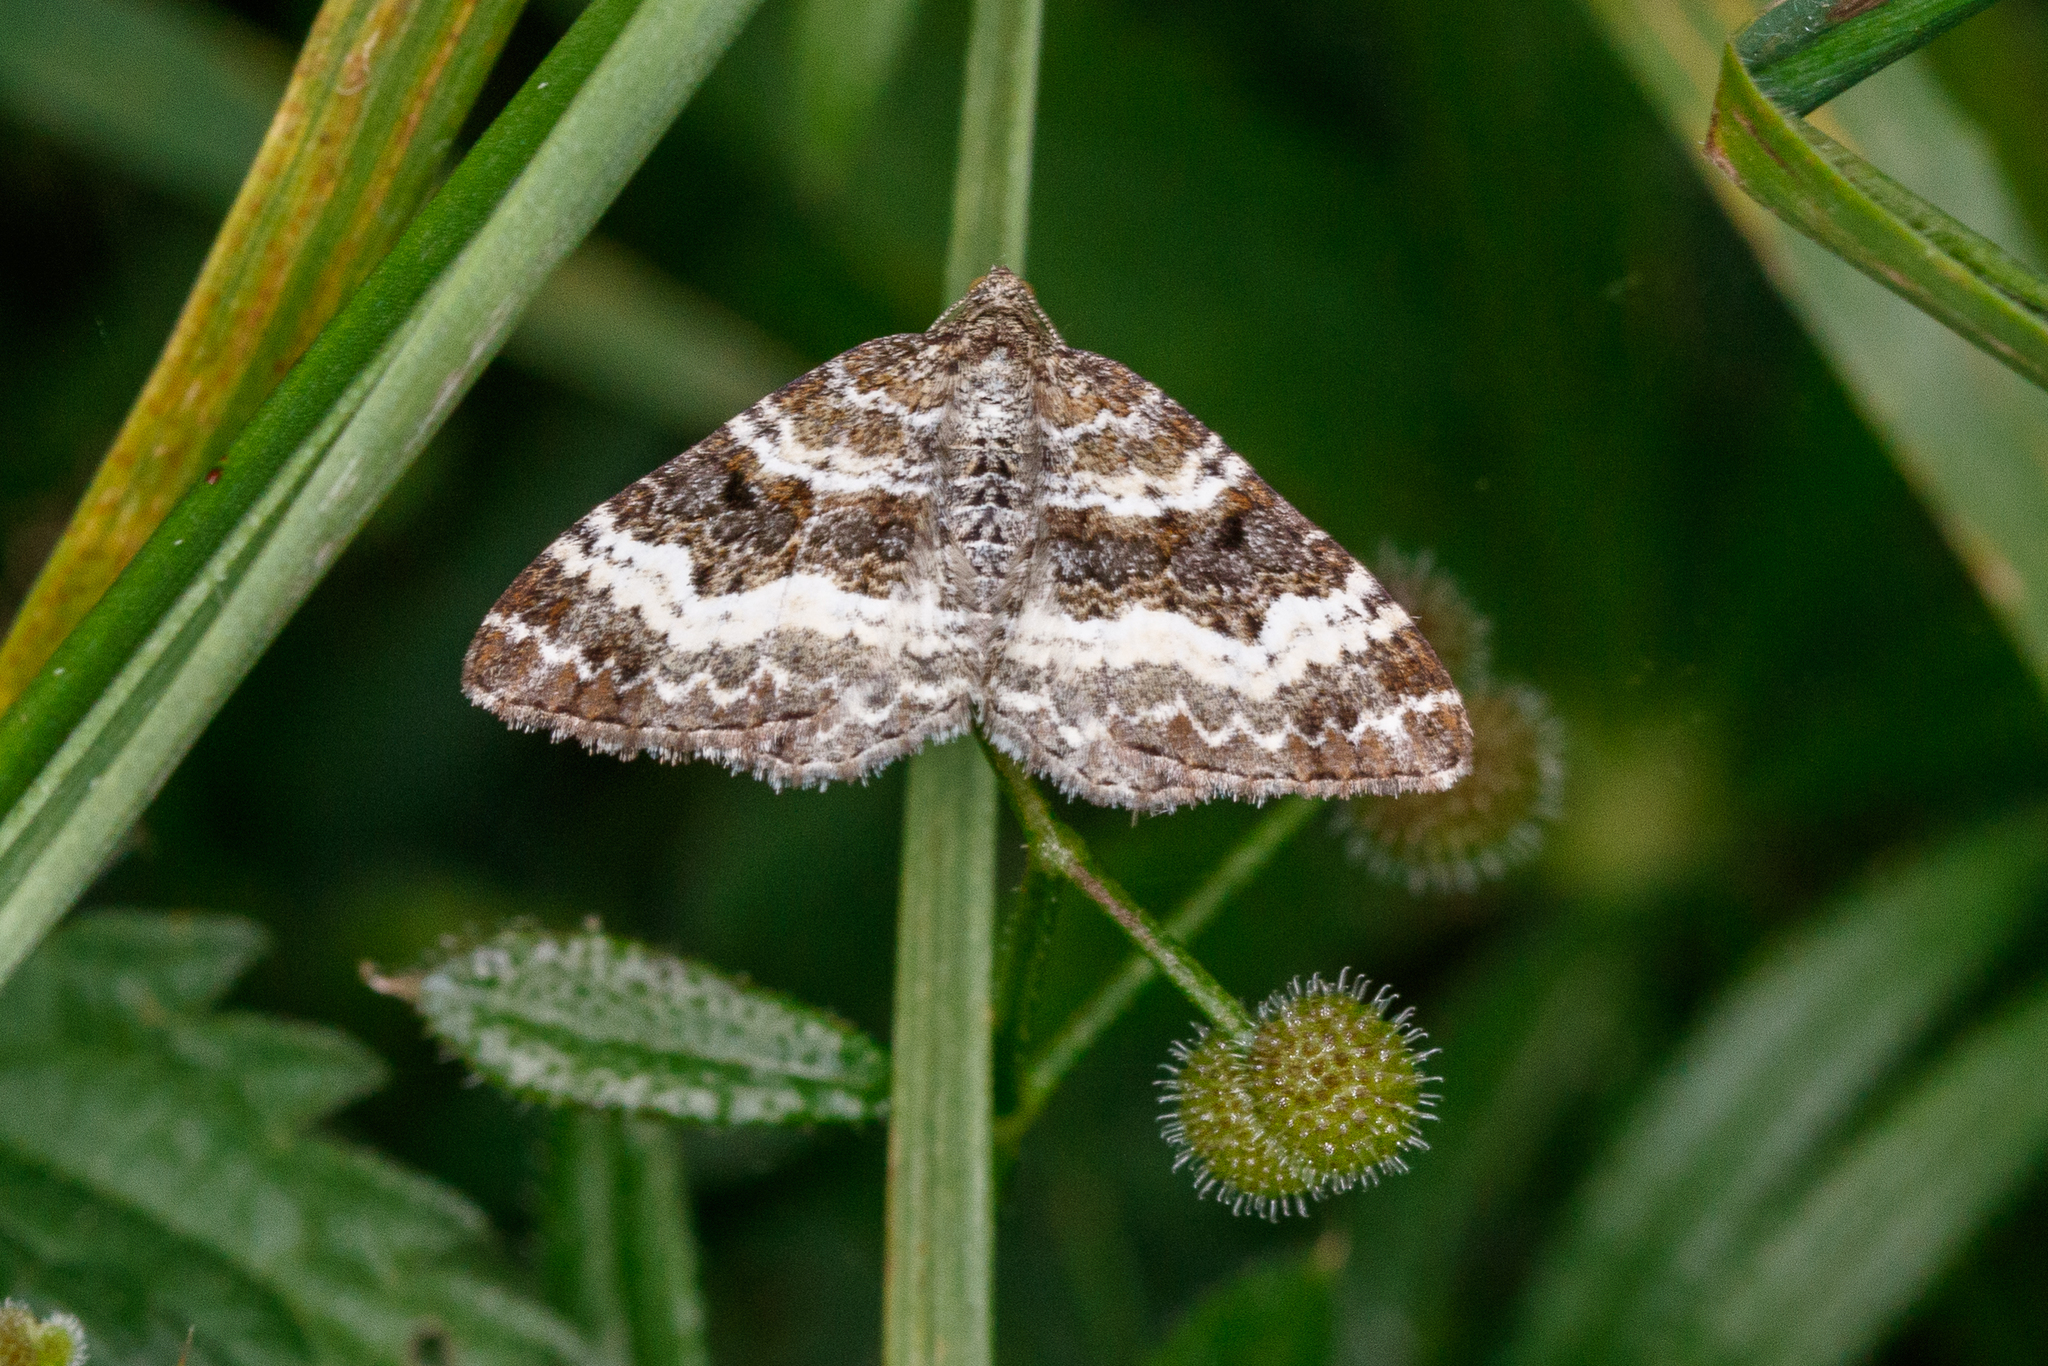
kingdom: Animalia
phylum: Arthropoda
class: Insecta
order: Lepidoptera
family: Geometridae
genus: Epirrhoe
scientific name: Epirrhoe alternata
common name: Common carpet
